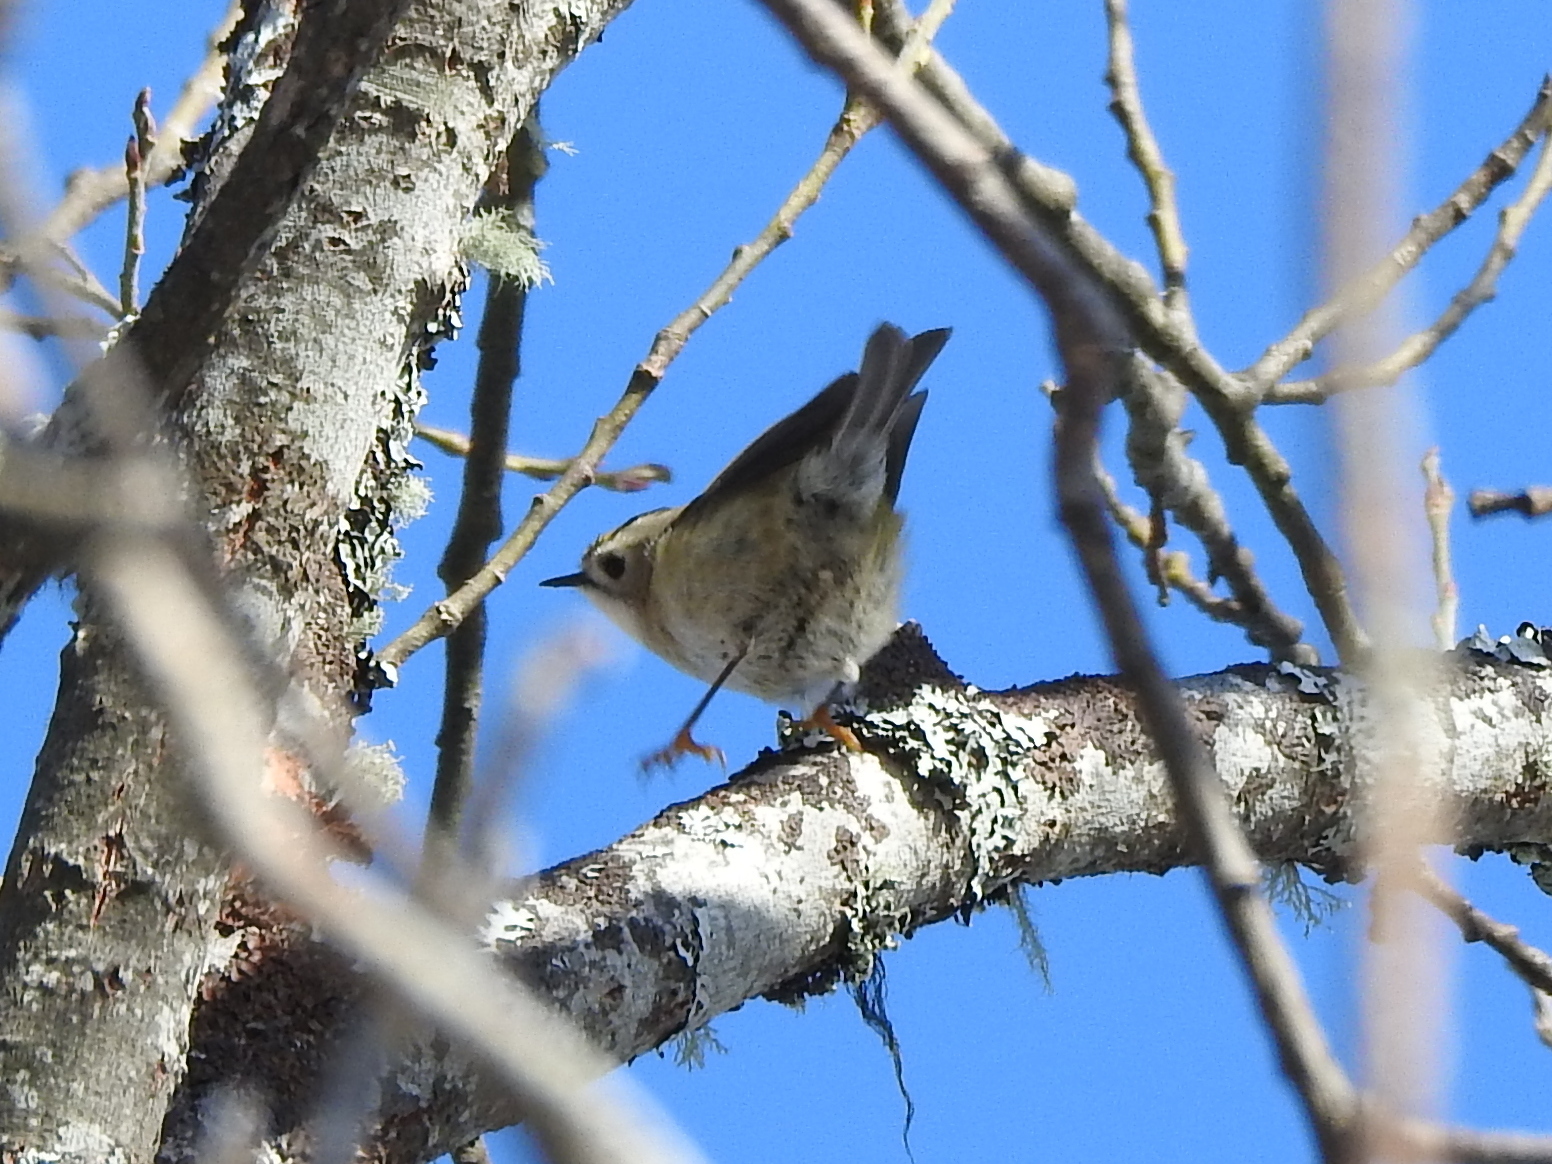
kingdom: Animalia
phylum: Chordata
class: Aves
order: Passeriformes
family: Regulidae
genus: Regulus
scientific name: Regulus regulus
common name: Goldcrest
